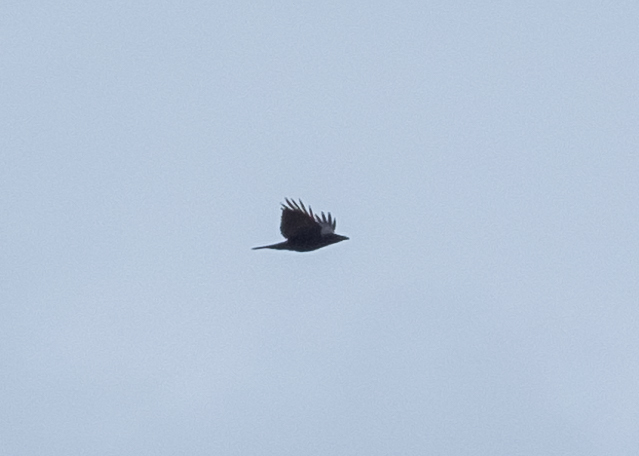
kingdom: Animalia
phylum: Chordata
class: Aves
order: Passeriformes
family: Corvidae
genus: Corvus
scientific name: Corvus frugilegus
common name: Rook
